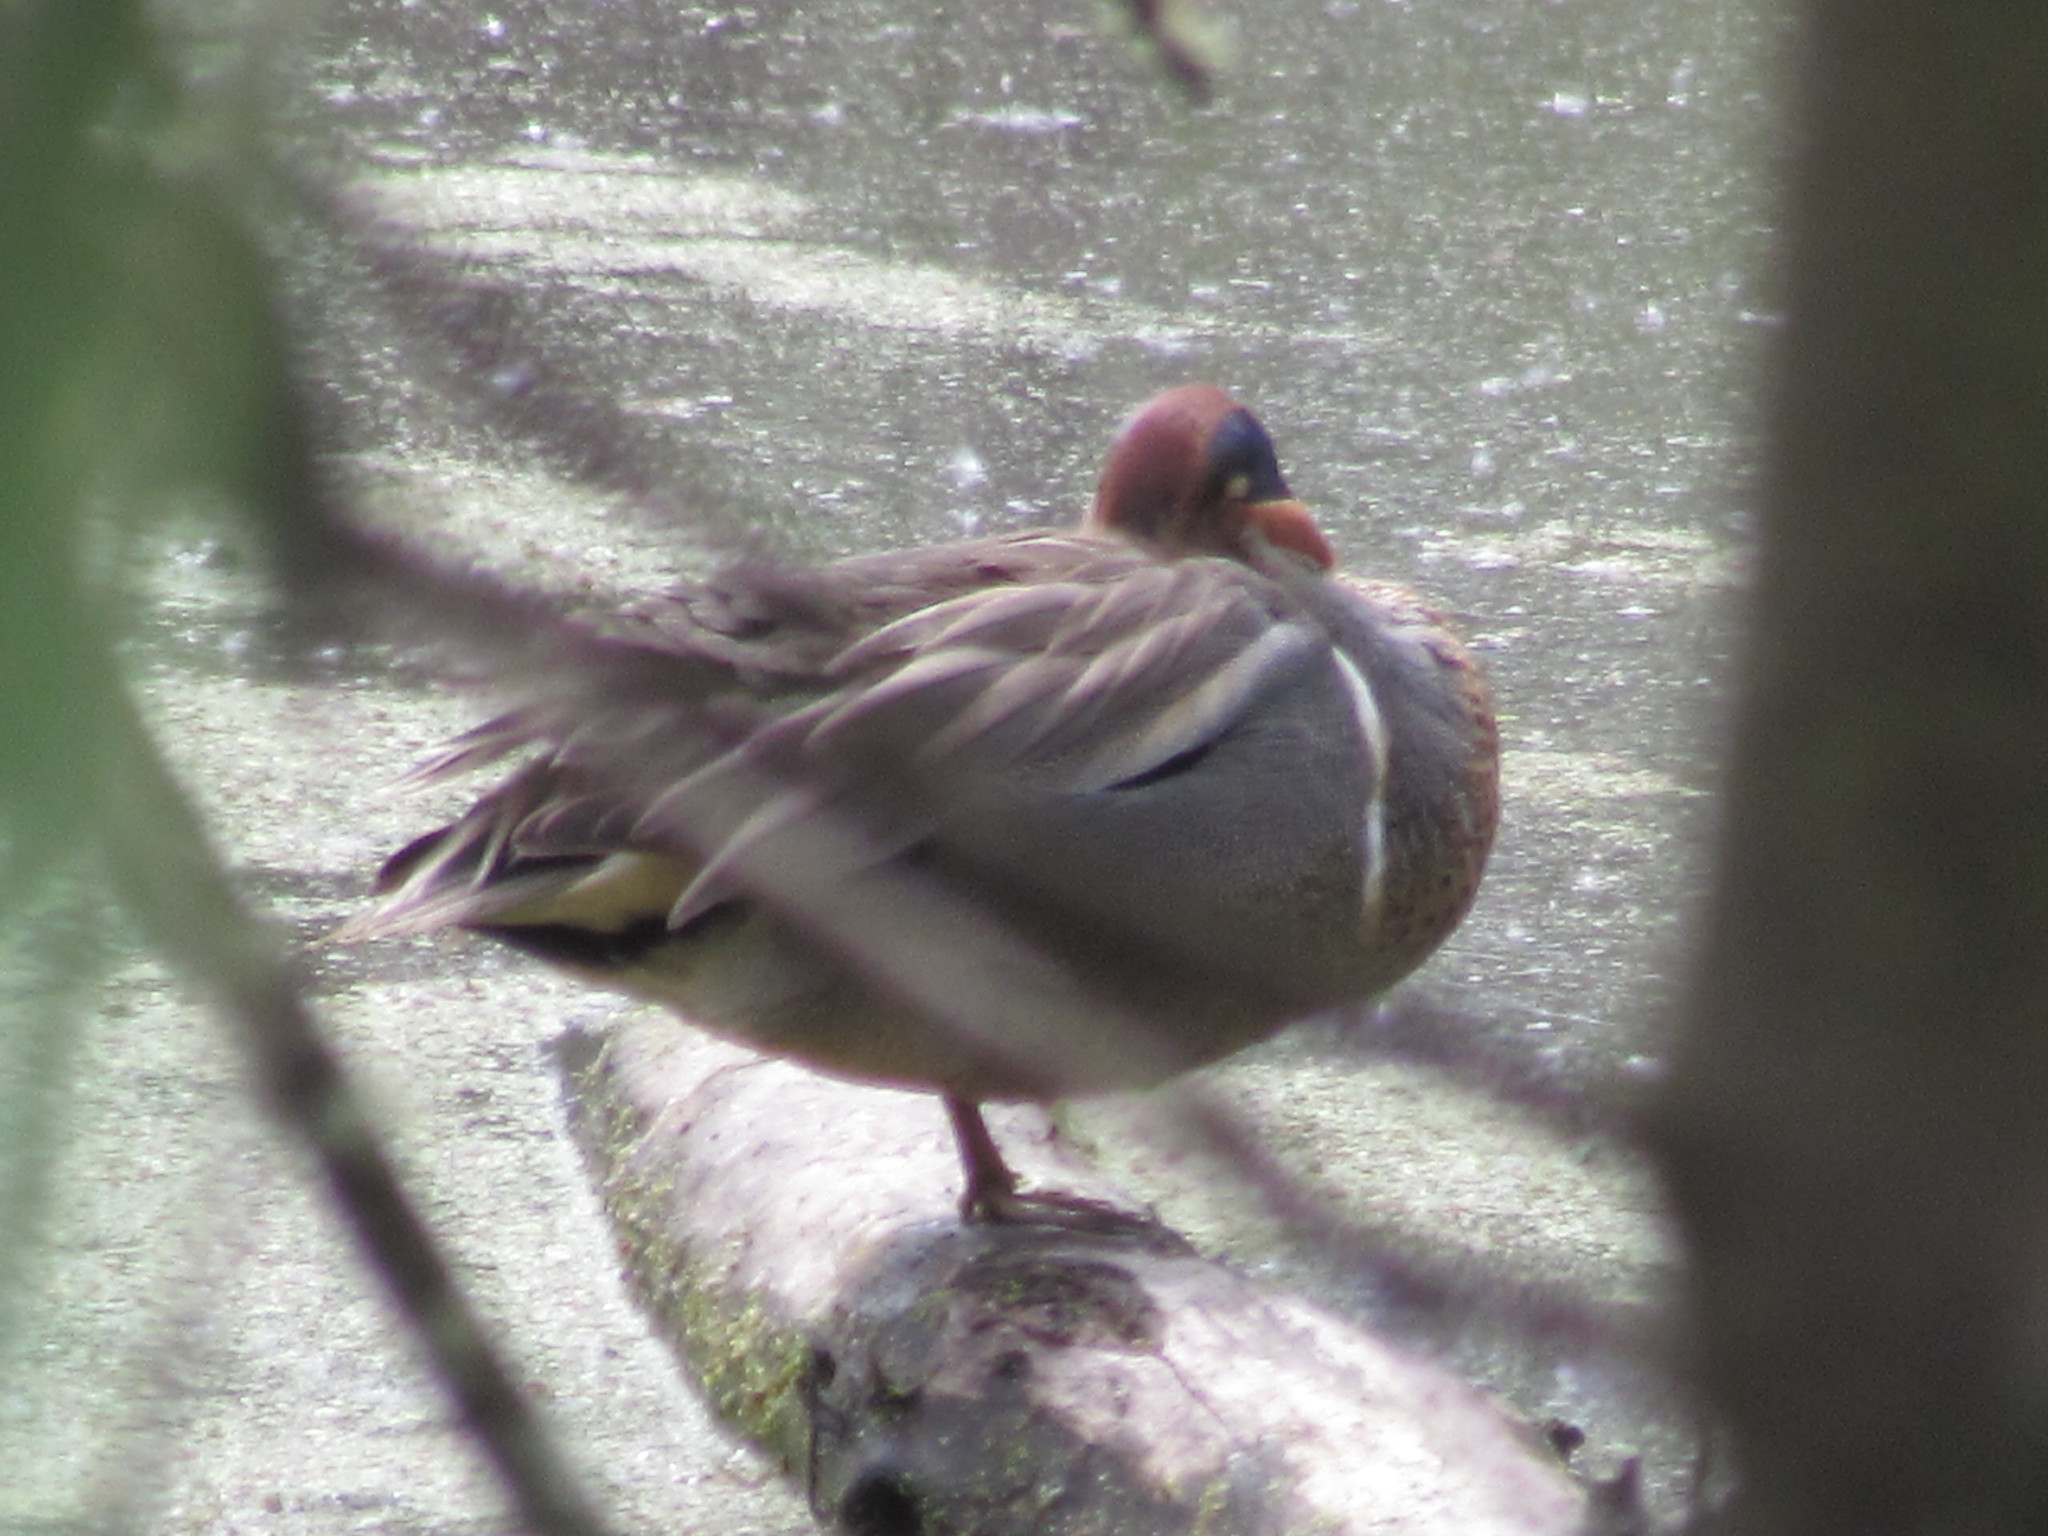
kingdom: Animalia
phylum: Chordata
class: Aves
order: Anseriformes
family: Anatidae
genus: Anas
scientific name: Anas crecca
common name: Eurasian teal
